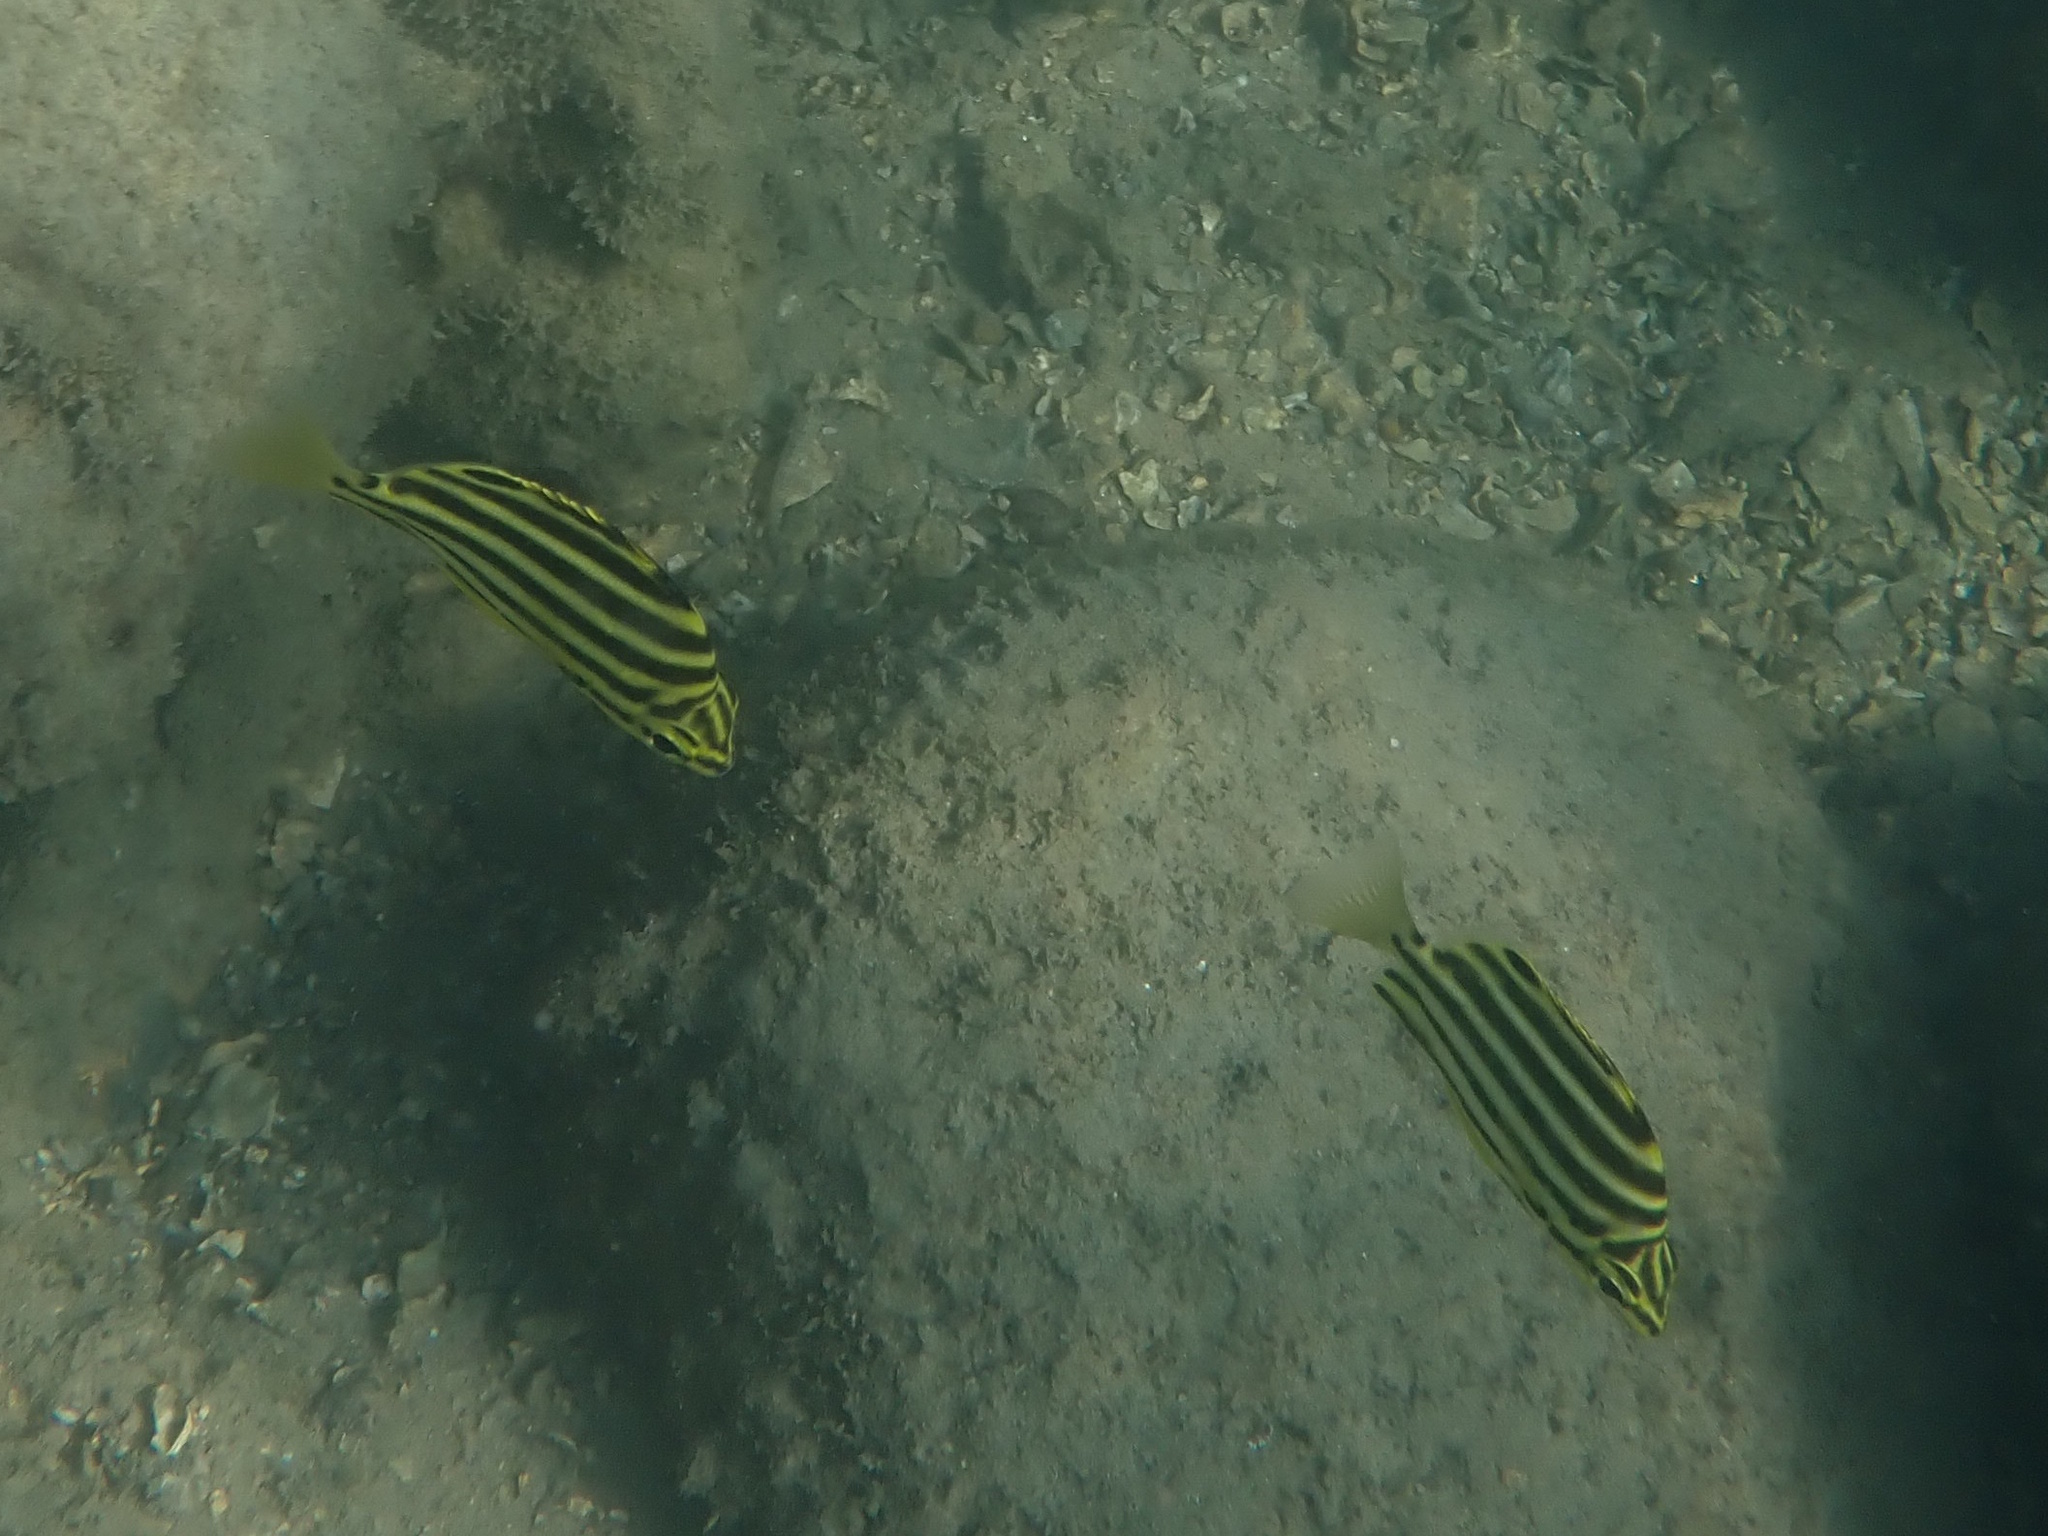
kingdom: Animalia
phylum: Chordata
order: Perciformes
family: Kyphosidae
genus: Microcanthus
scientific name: Microcanthus joyceae
